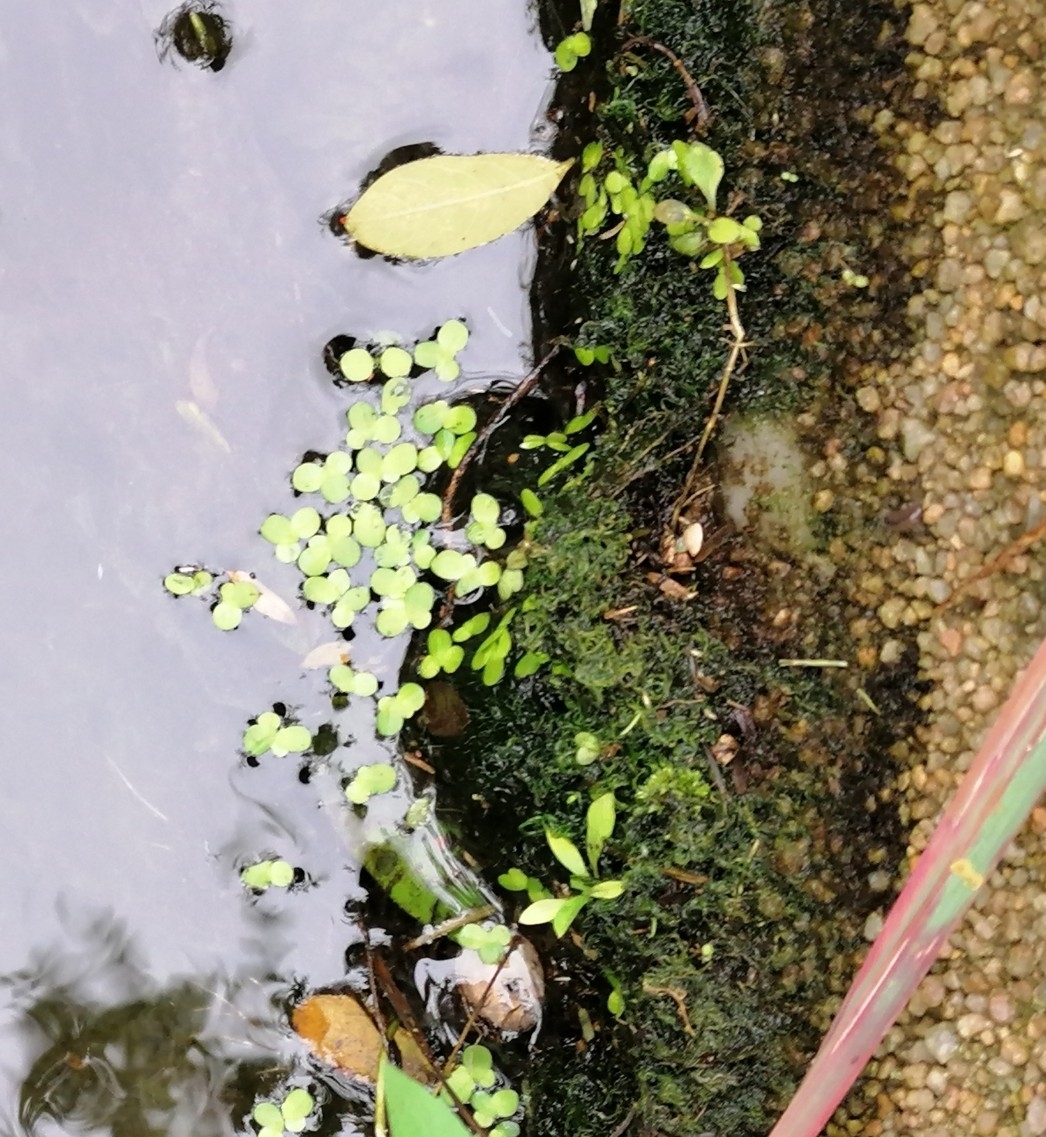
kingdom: Plantae
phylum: Tracheophyta
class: Liliopsida
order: Alismatales
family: Araceae
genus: Lemna
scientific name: Lemna minor
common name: Common duckweed
